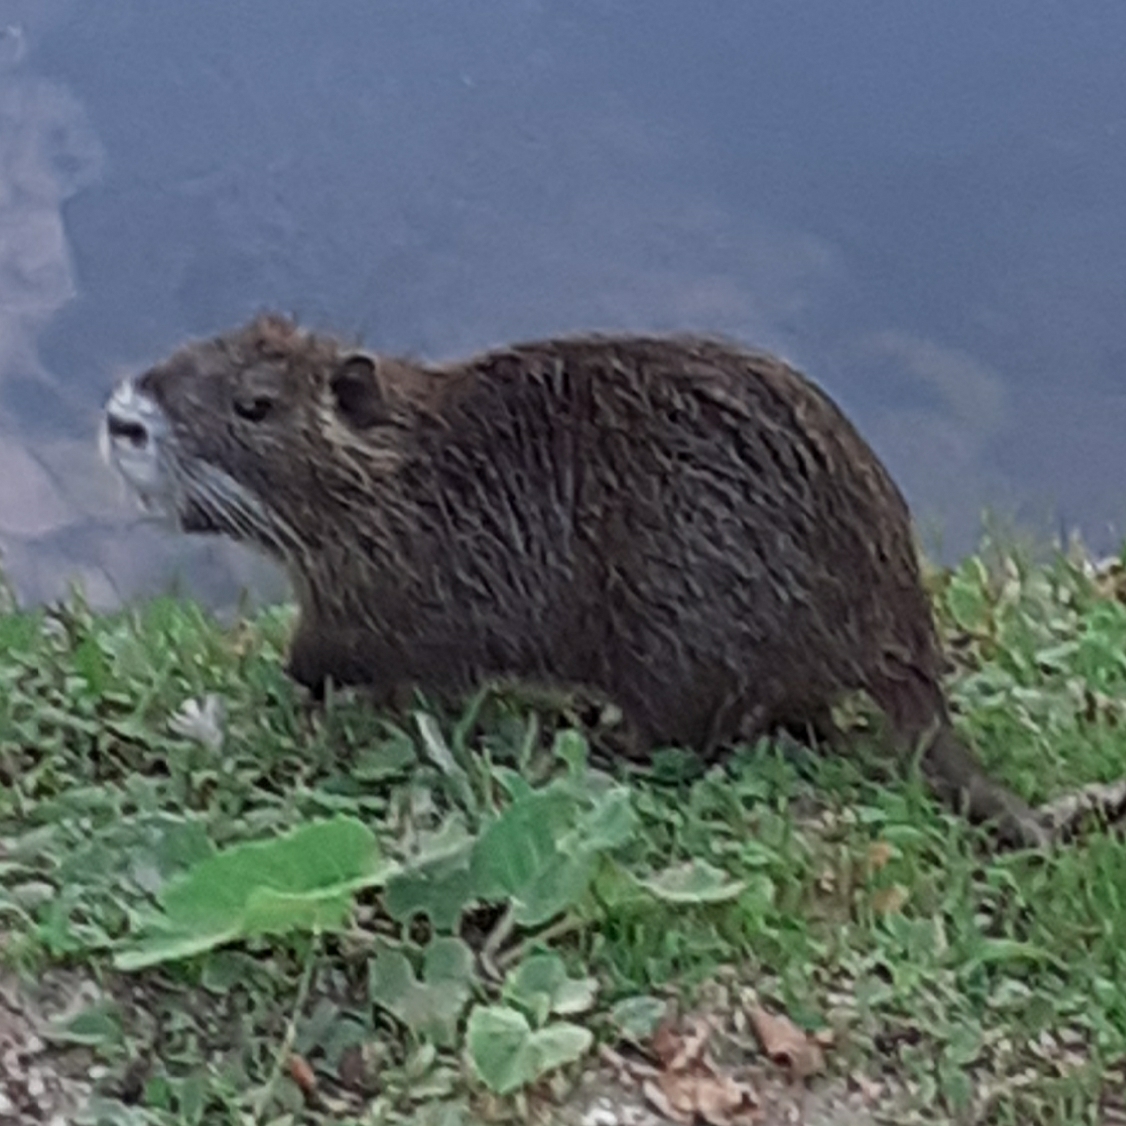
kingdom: Animalia
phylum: Chordata
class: Mammalia
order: Rodentia
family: Myocastoridae
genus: Myocastor
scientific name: Myocastor coypus
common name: Coypu
